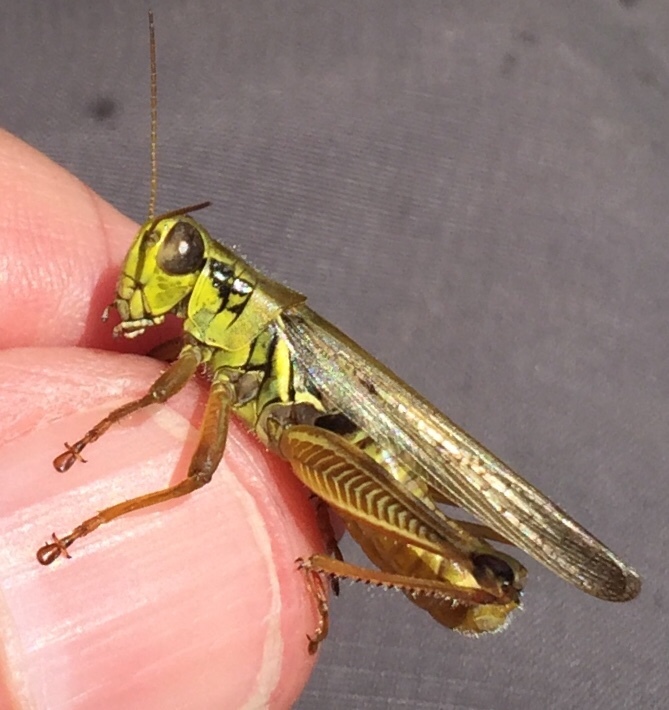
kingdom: Animalia
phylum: Arthropoda
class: Insecta
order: Orthoptera
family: Acrididae
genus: Melanoplus
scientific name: Melanoplus femurrubrum
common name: Red-legged grasshopper
